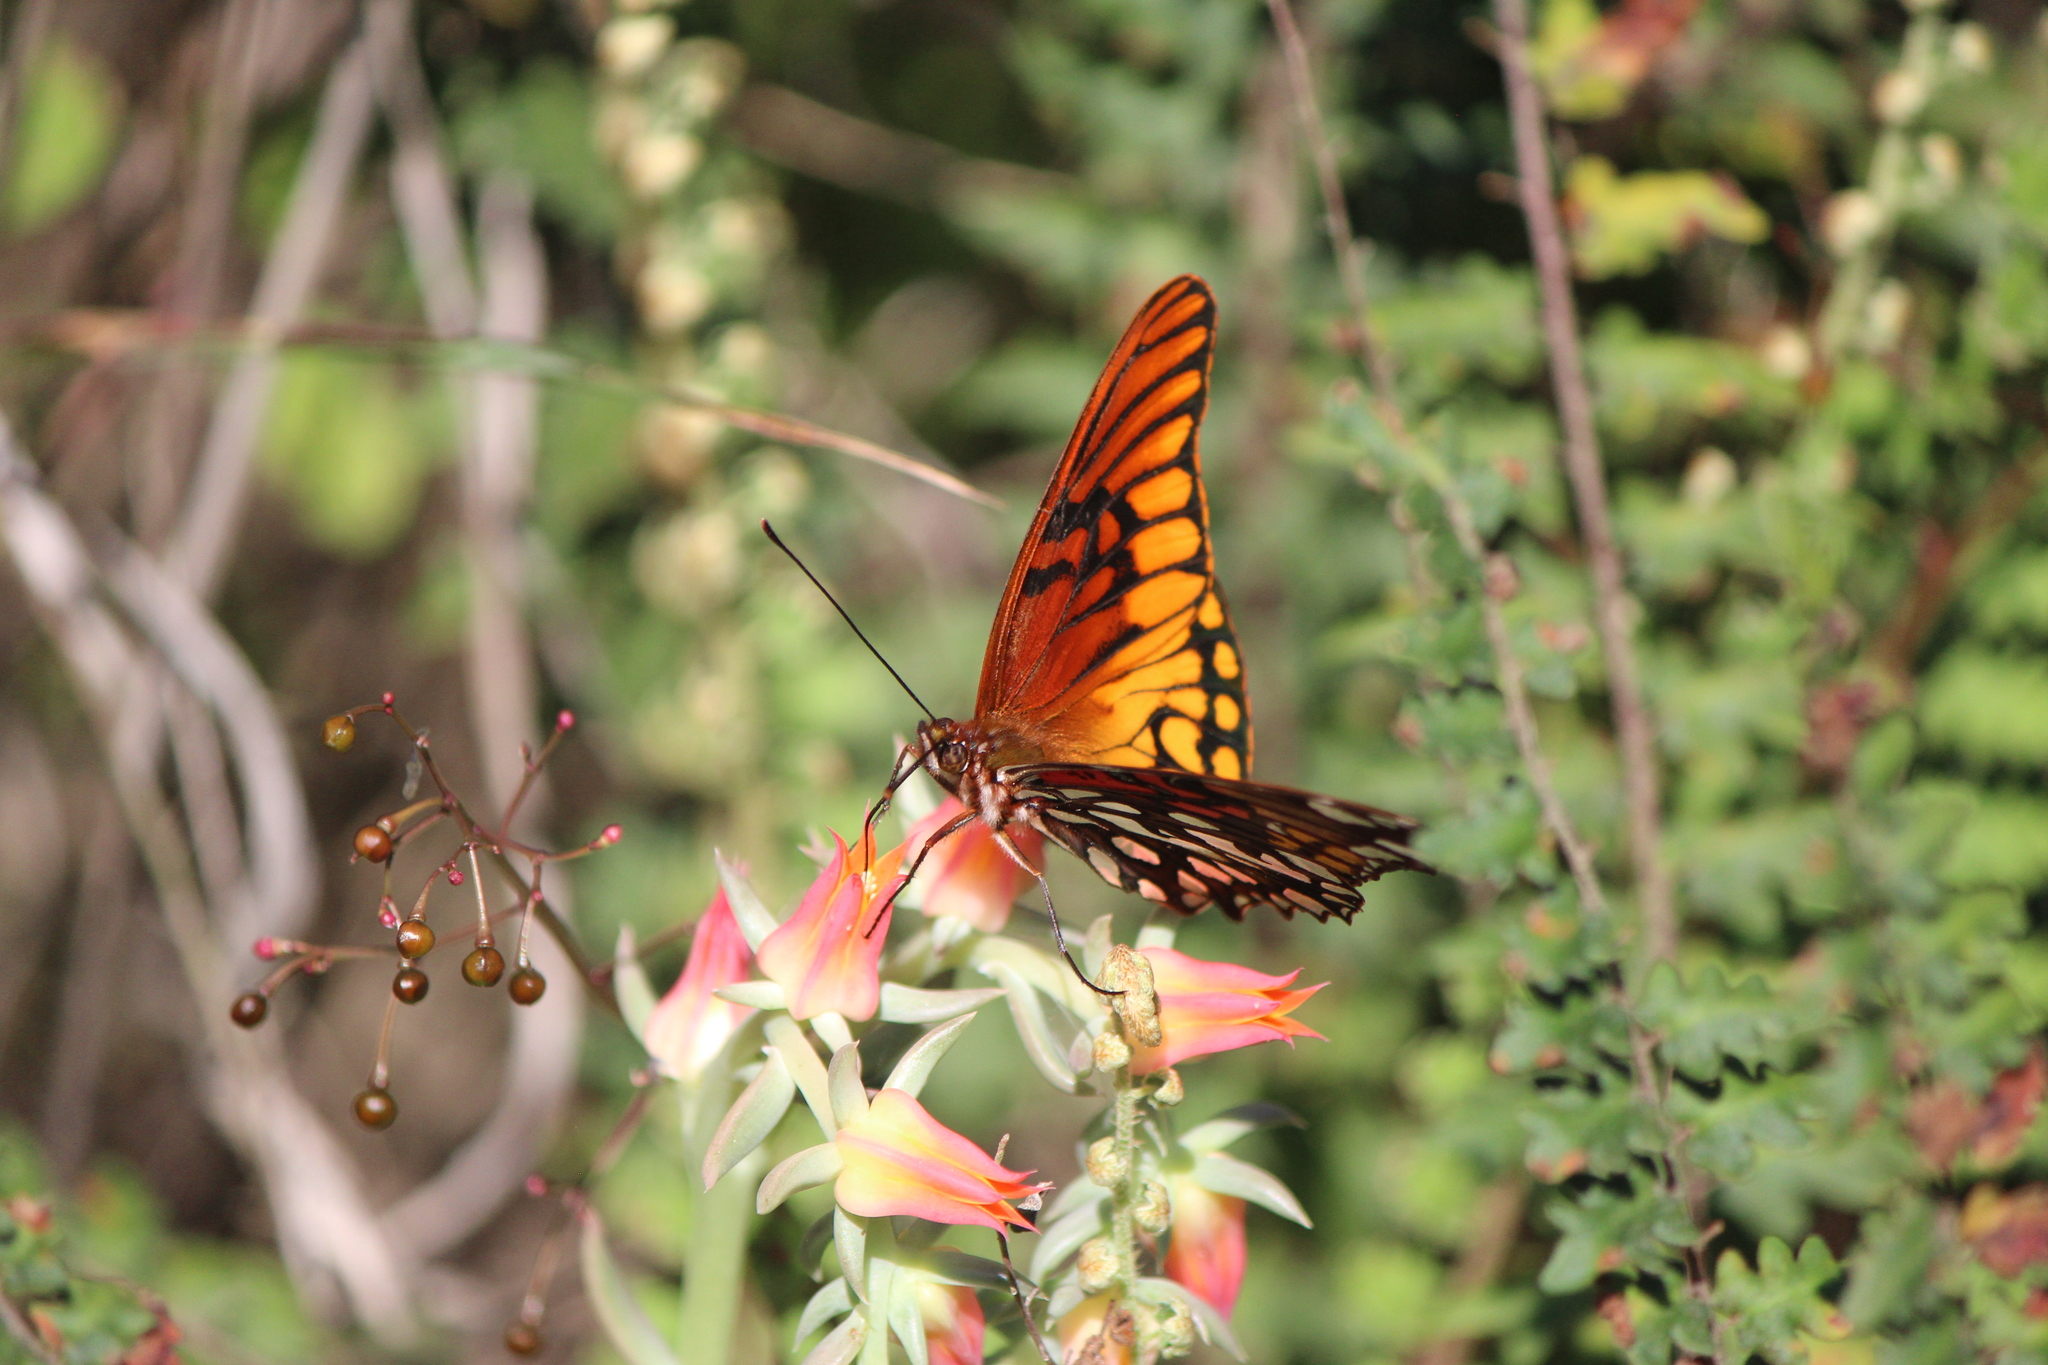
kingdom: Animalia
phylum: Arthropoda
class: Insecta
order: Lepidoptera
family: Nymphalidae
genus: Dione
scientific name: Dione moneta
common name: Mexican silverspot
